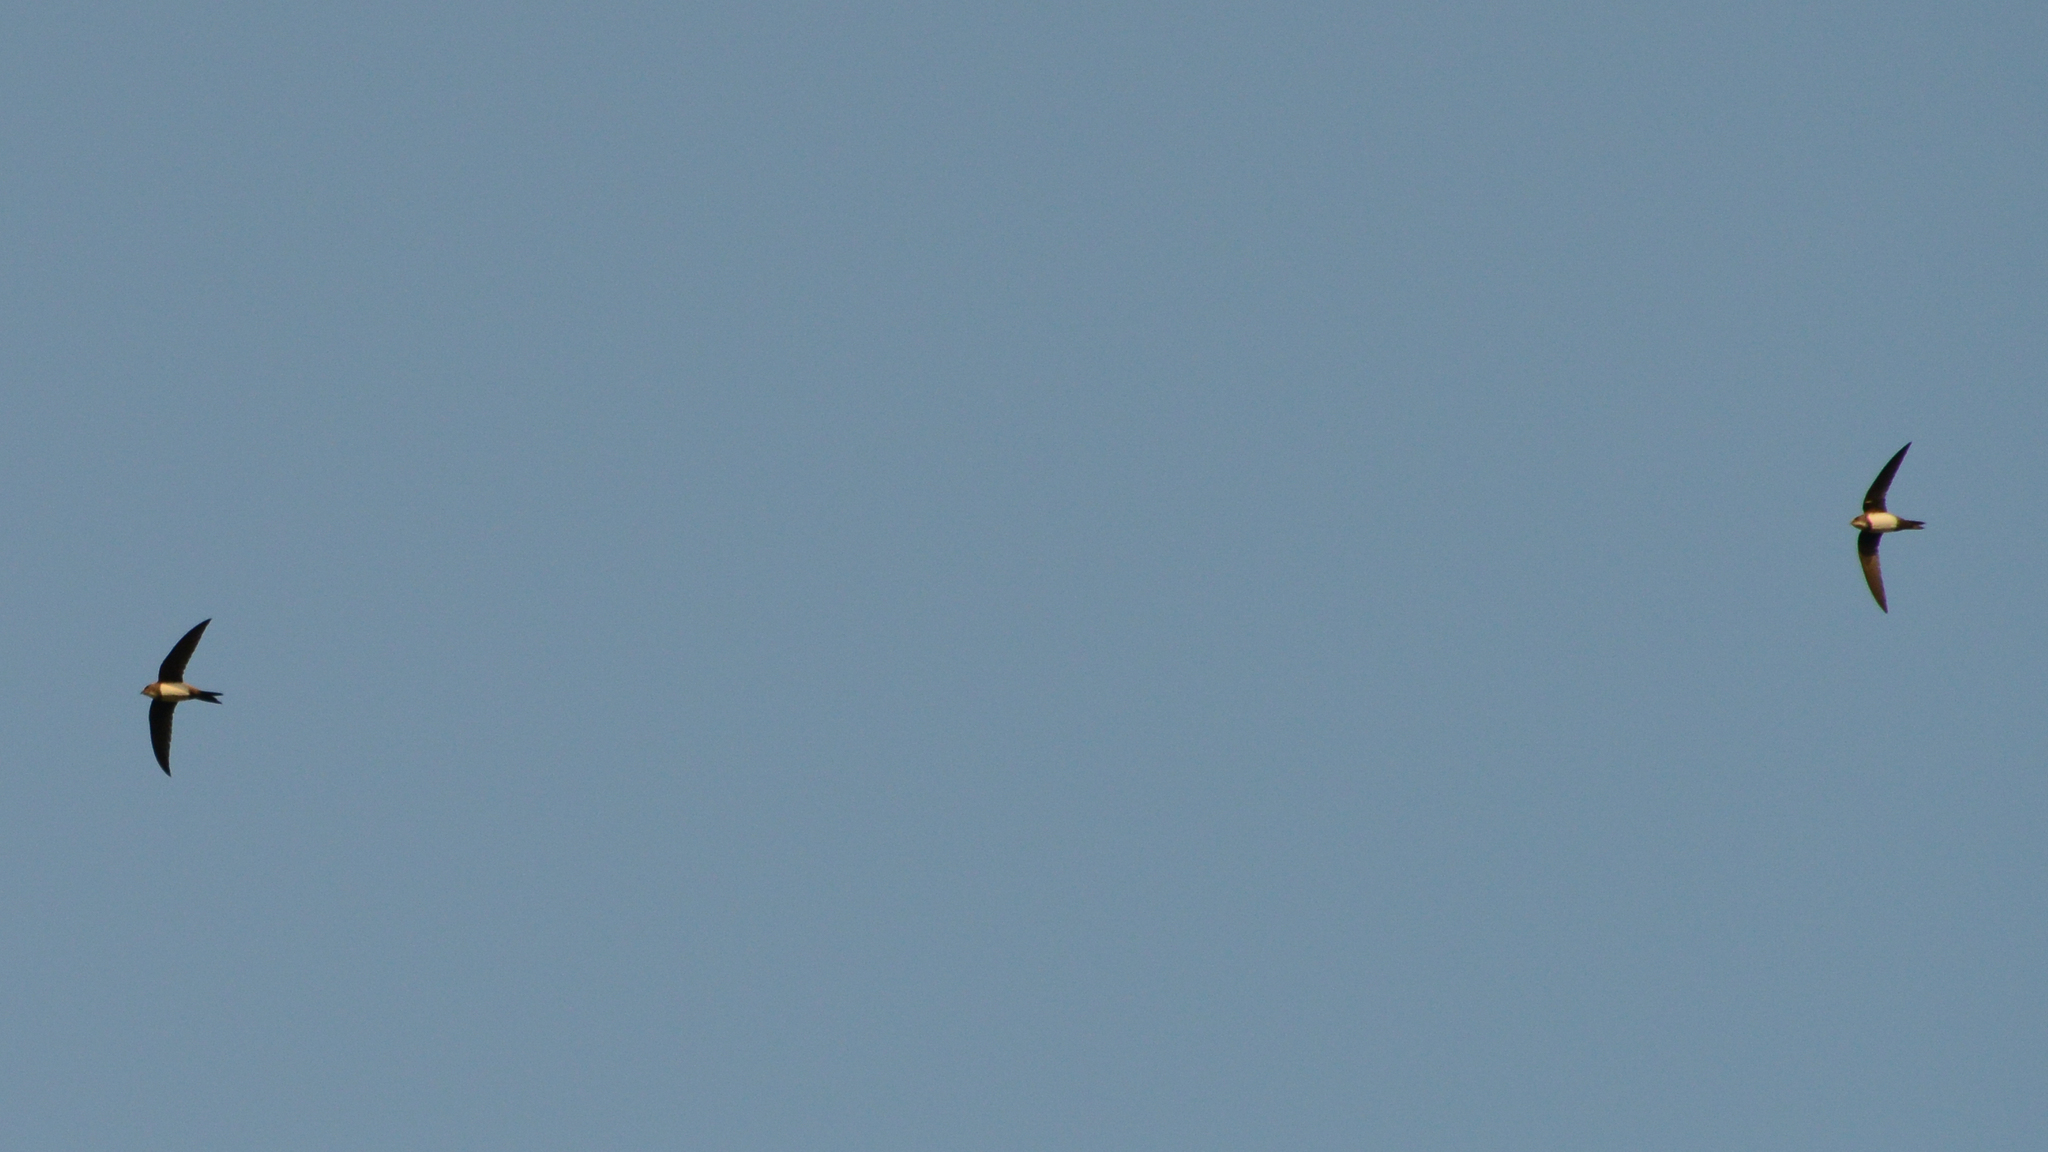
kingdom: Animalia
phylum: Chordata
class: Aves
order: Apodiformes
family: Apodidae
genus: Tachymarptis
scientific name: Tachymarptis melba
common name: Alpine swift
